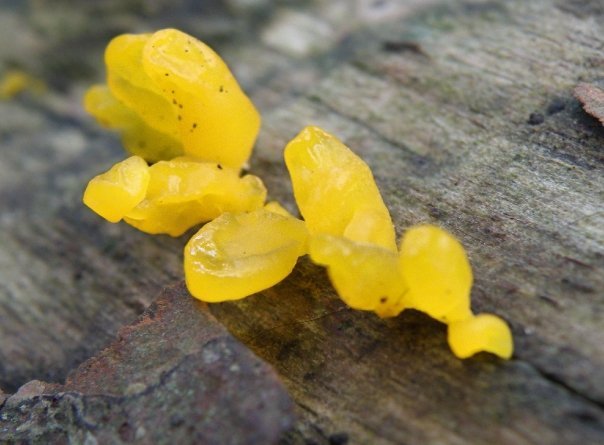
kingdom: Fungi
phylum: Basidiomycota
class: Dacrymycetes
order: Dacrymycetales
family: Dacrymycetaceae
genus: Dacrymyces
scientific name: Dacrymyces spathularius
